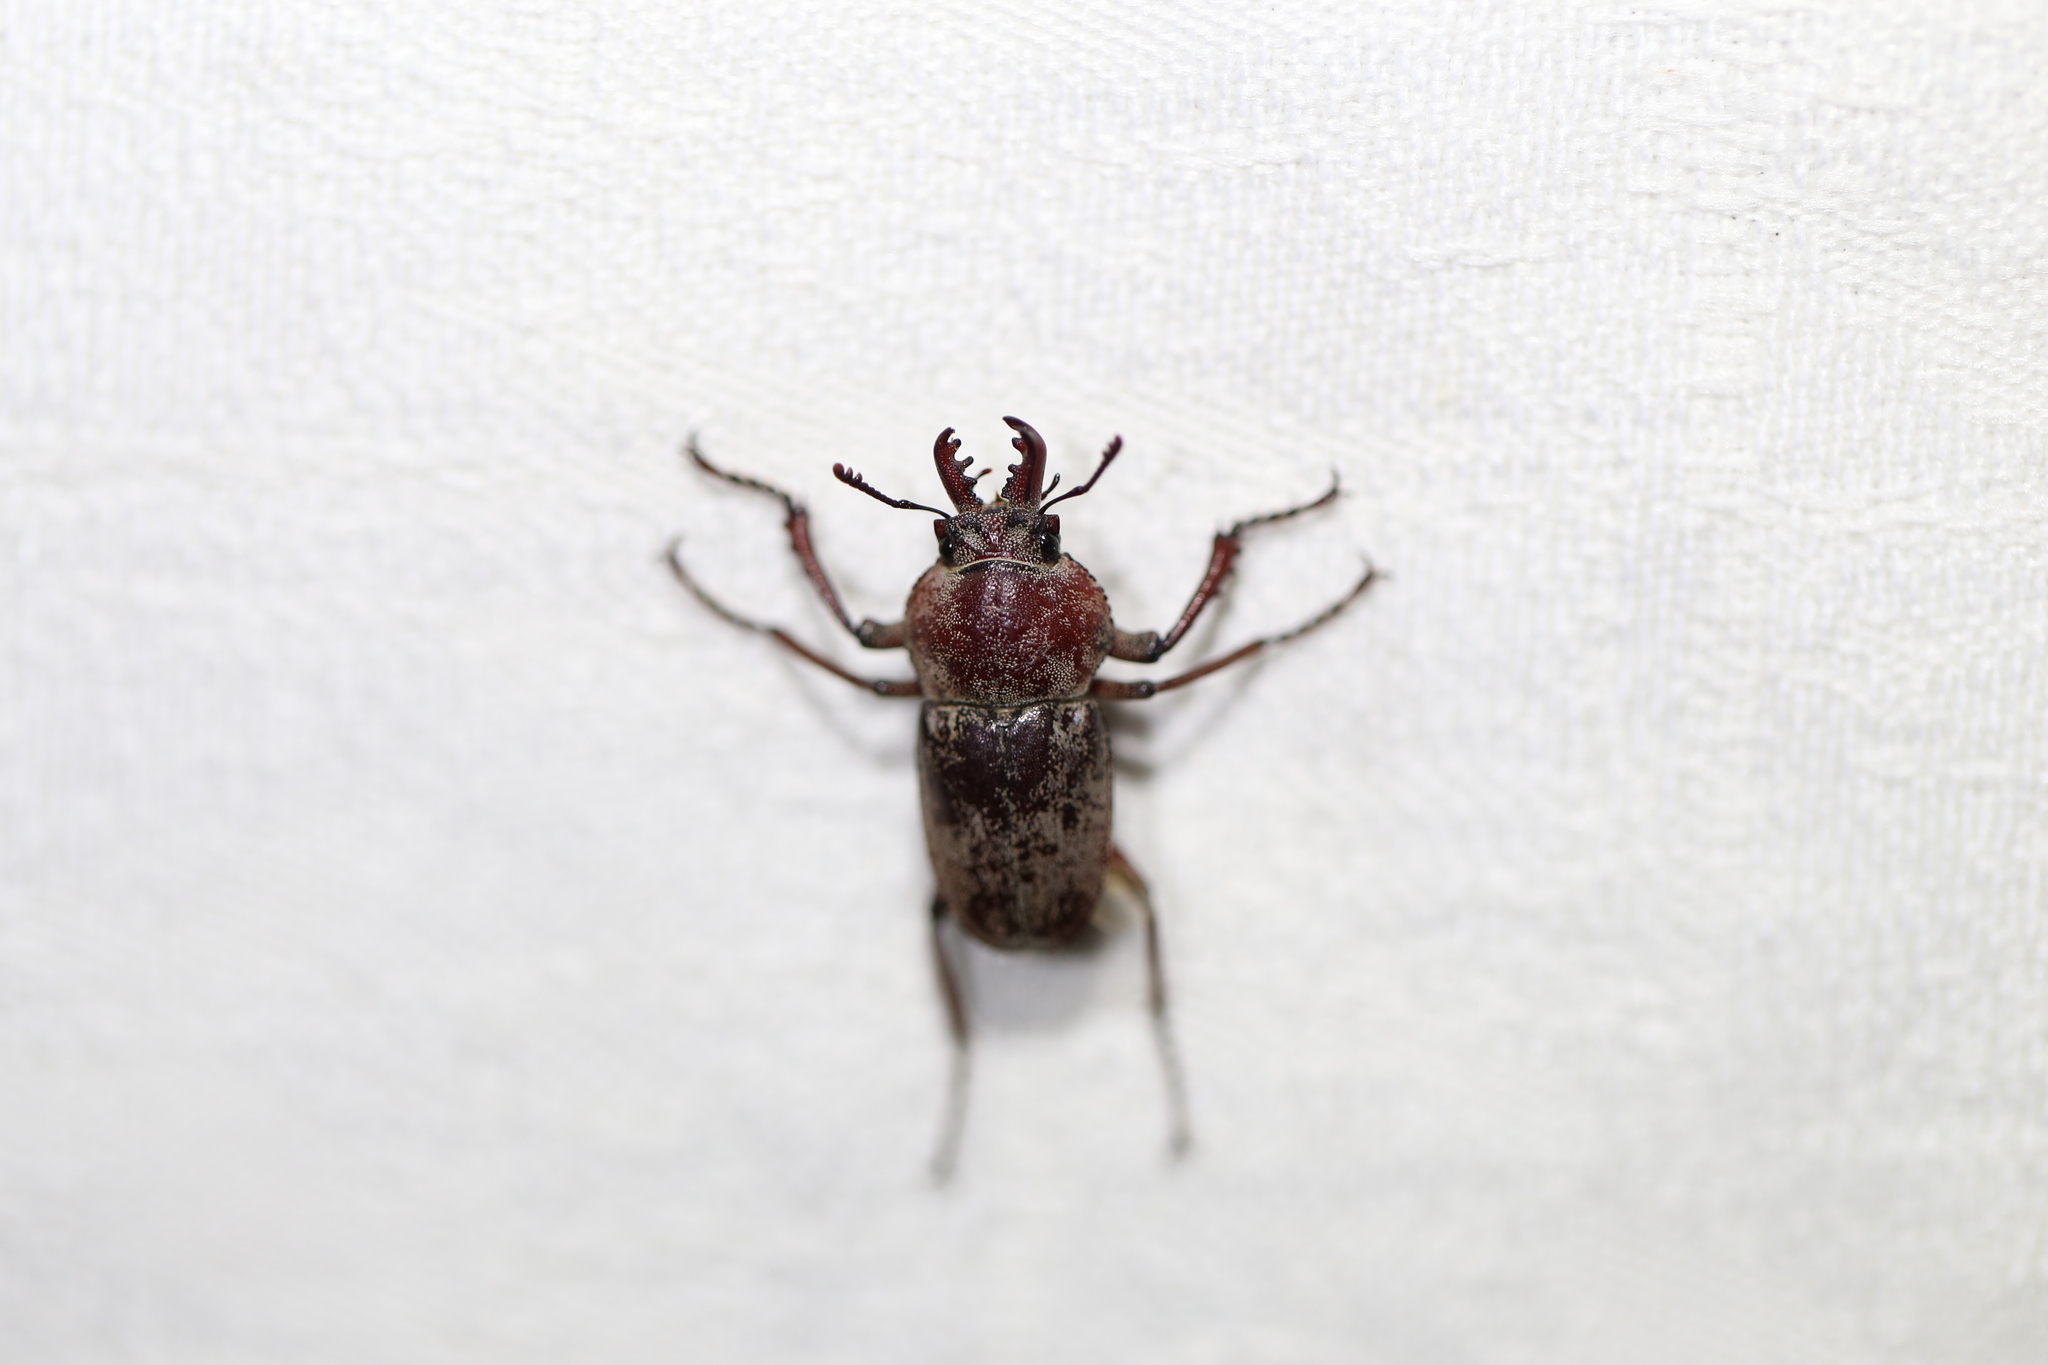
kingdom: Animalia
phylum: Arthropoda
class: Insecta
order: Coleoptera
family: Lucanidae
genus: Cacostomus
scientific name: Cacostomus squamosus
